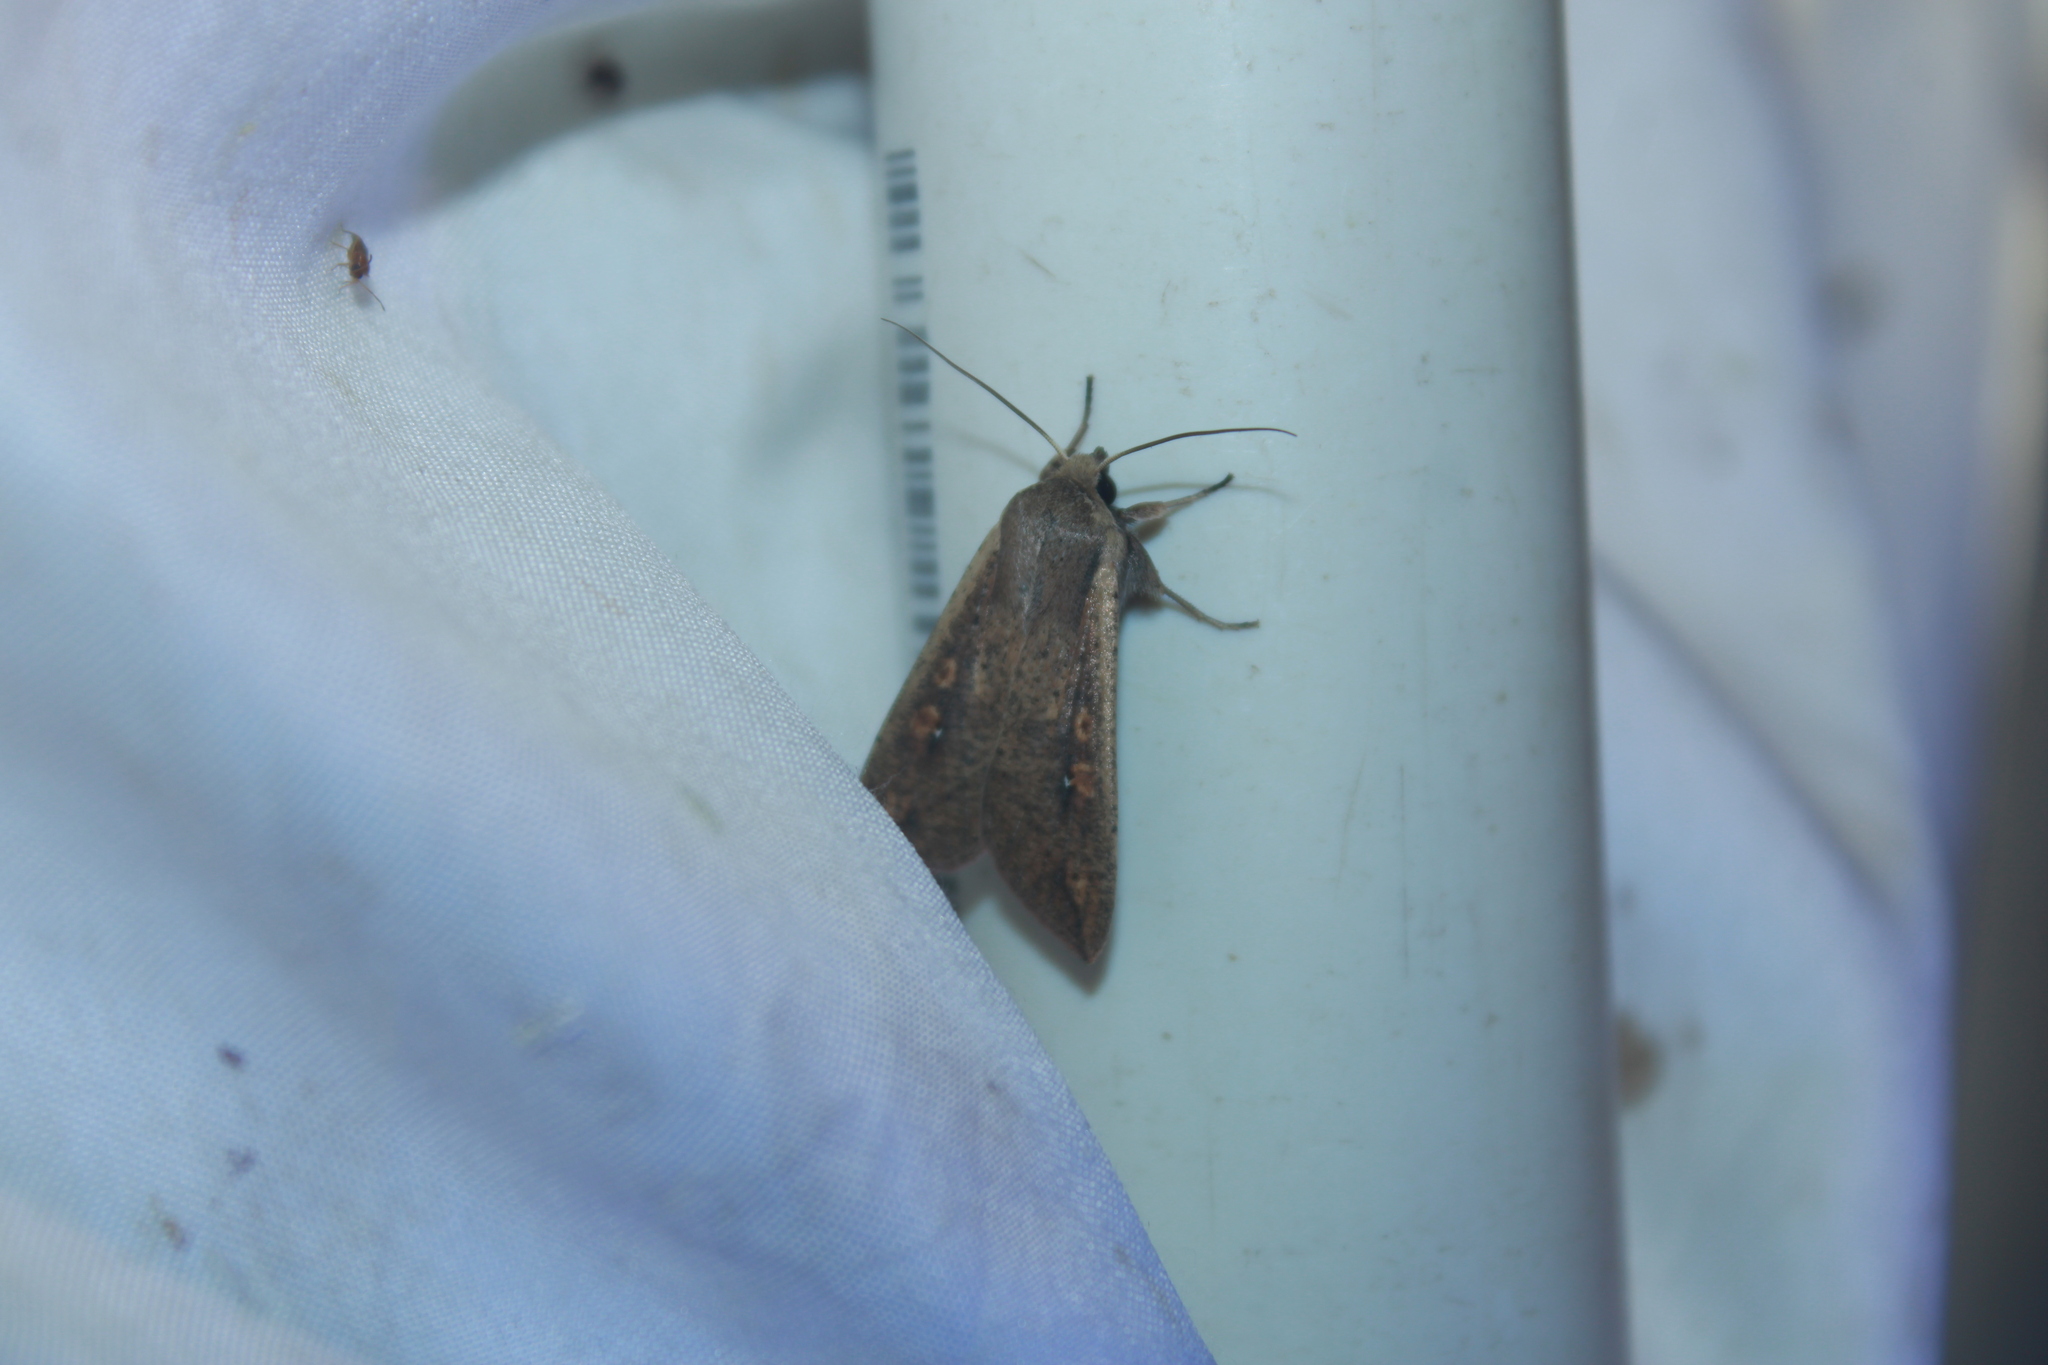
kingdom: Animalia
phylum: Arthropoda
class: Insecta
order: Lepidoptera
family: Noctuidae
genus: Mythimna
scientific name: Mythimna unipuncta
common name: White-speck
